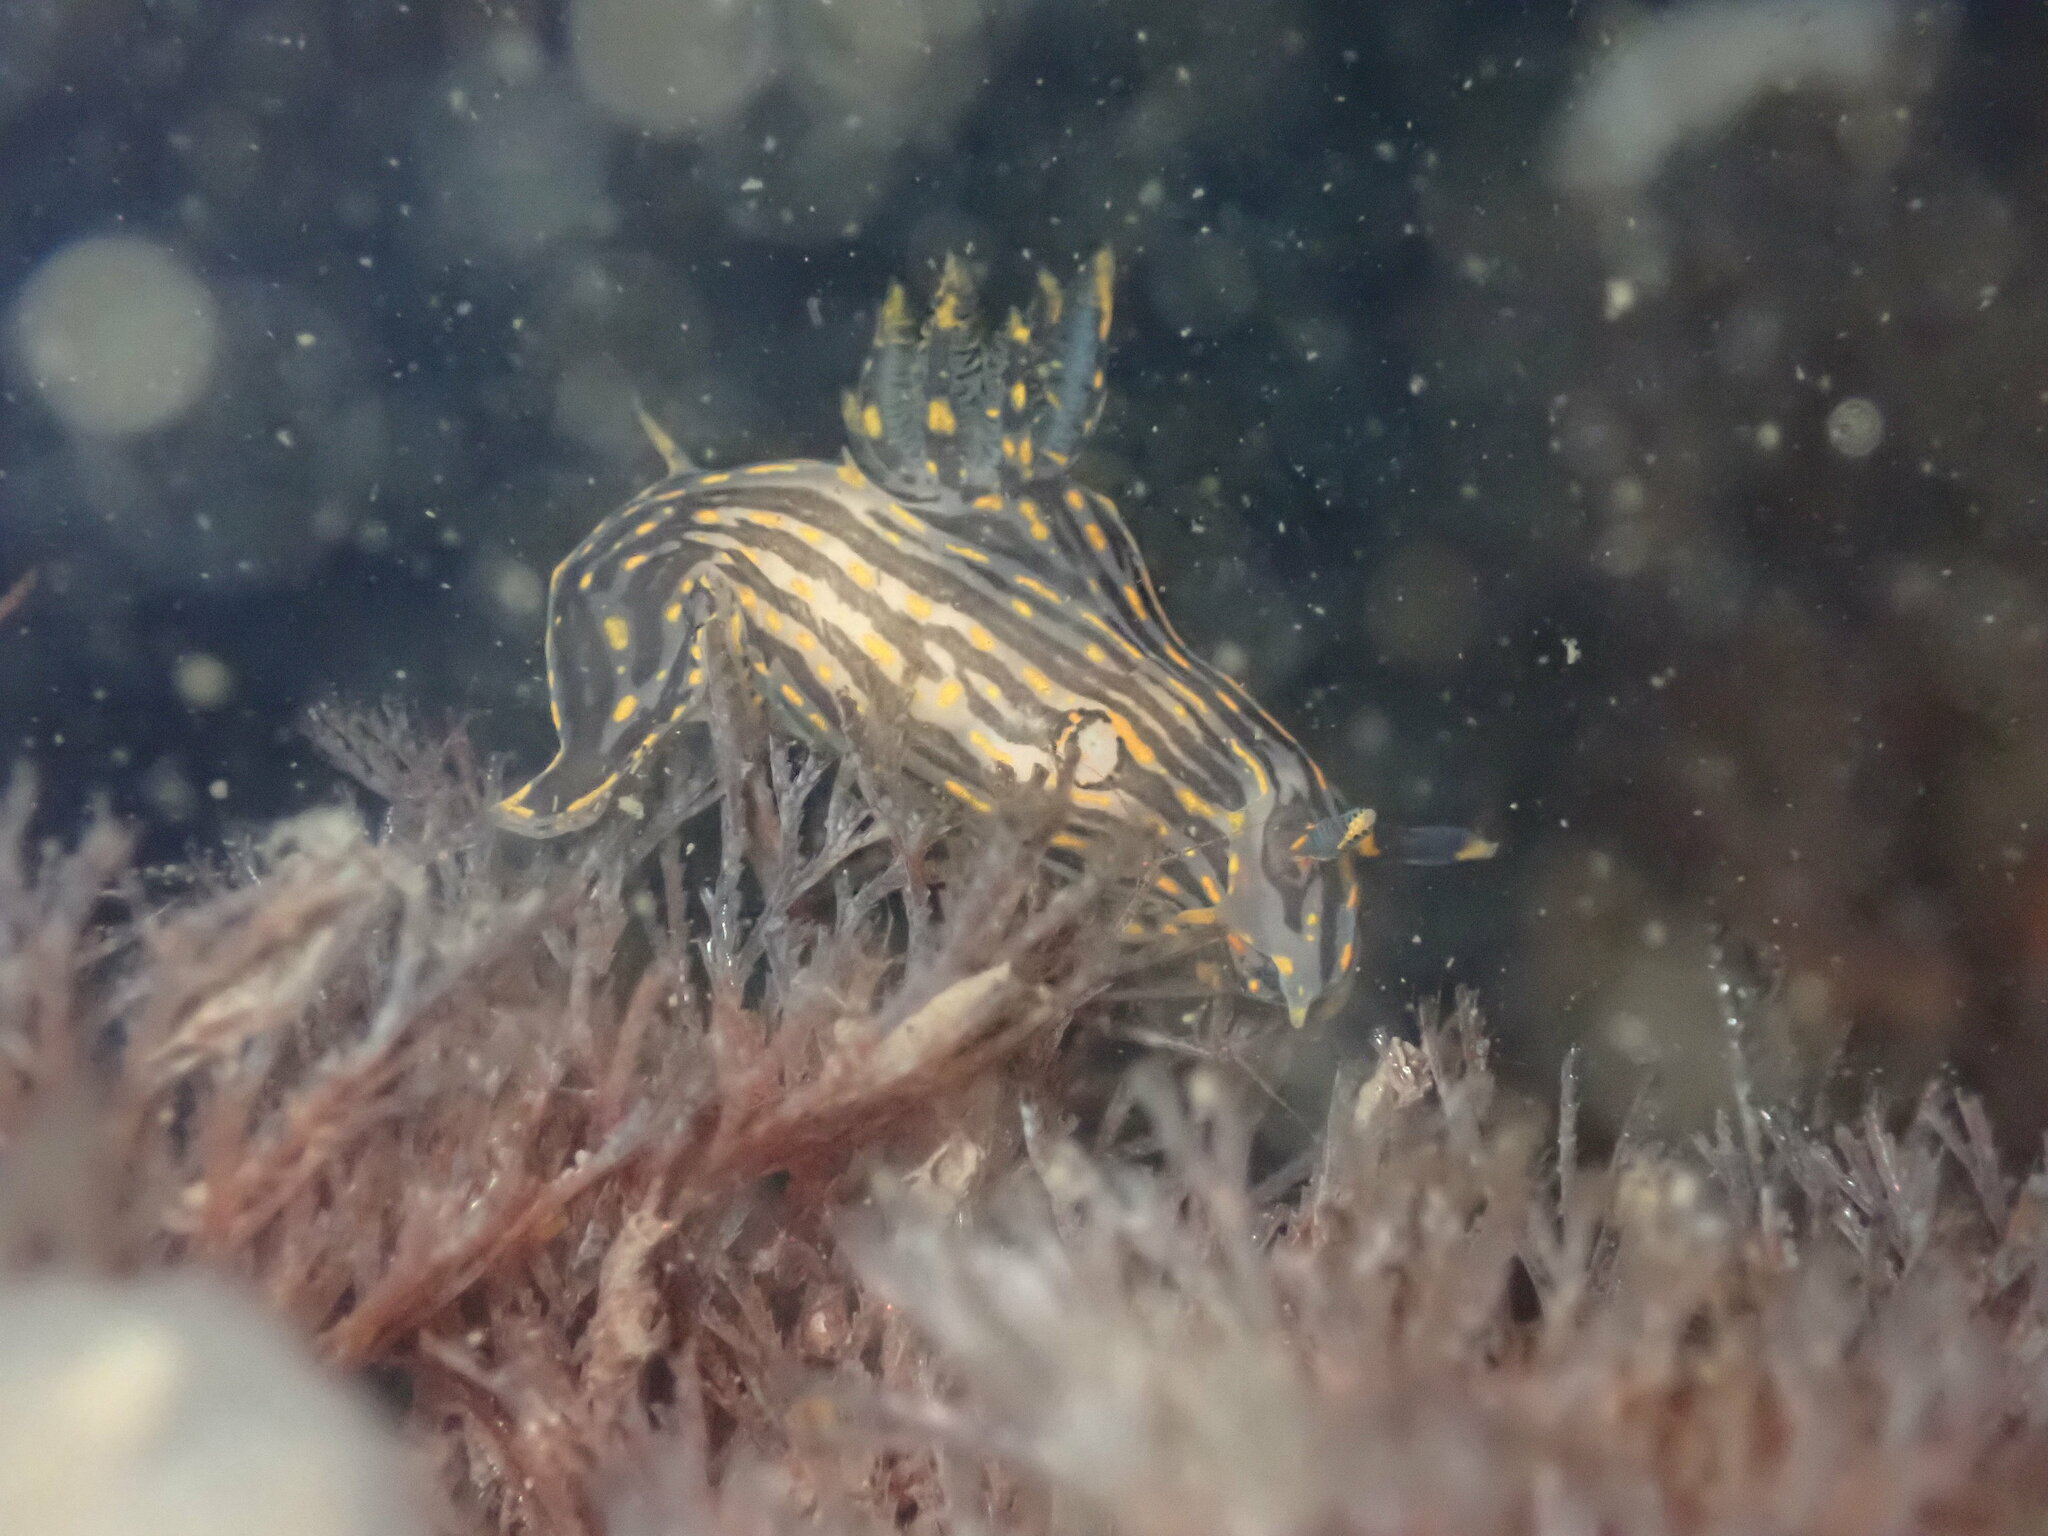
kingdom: Animalia
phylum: Mollusca
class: Gastropoda
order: Nudibranchia
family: Polyceridae
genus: Polycera
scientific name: Polycera atra
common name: Orange-spike polycera
